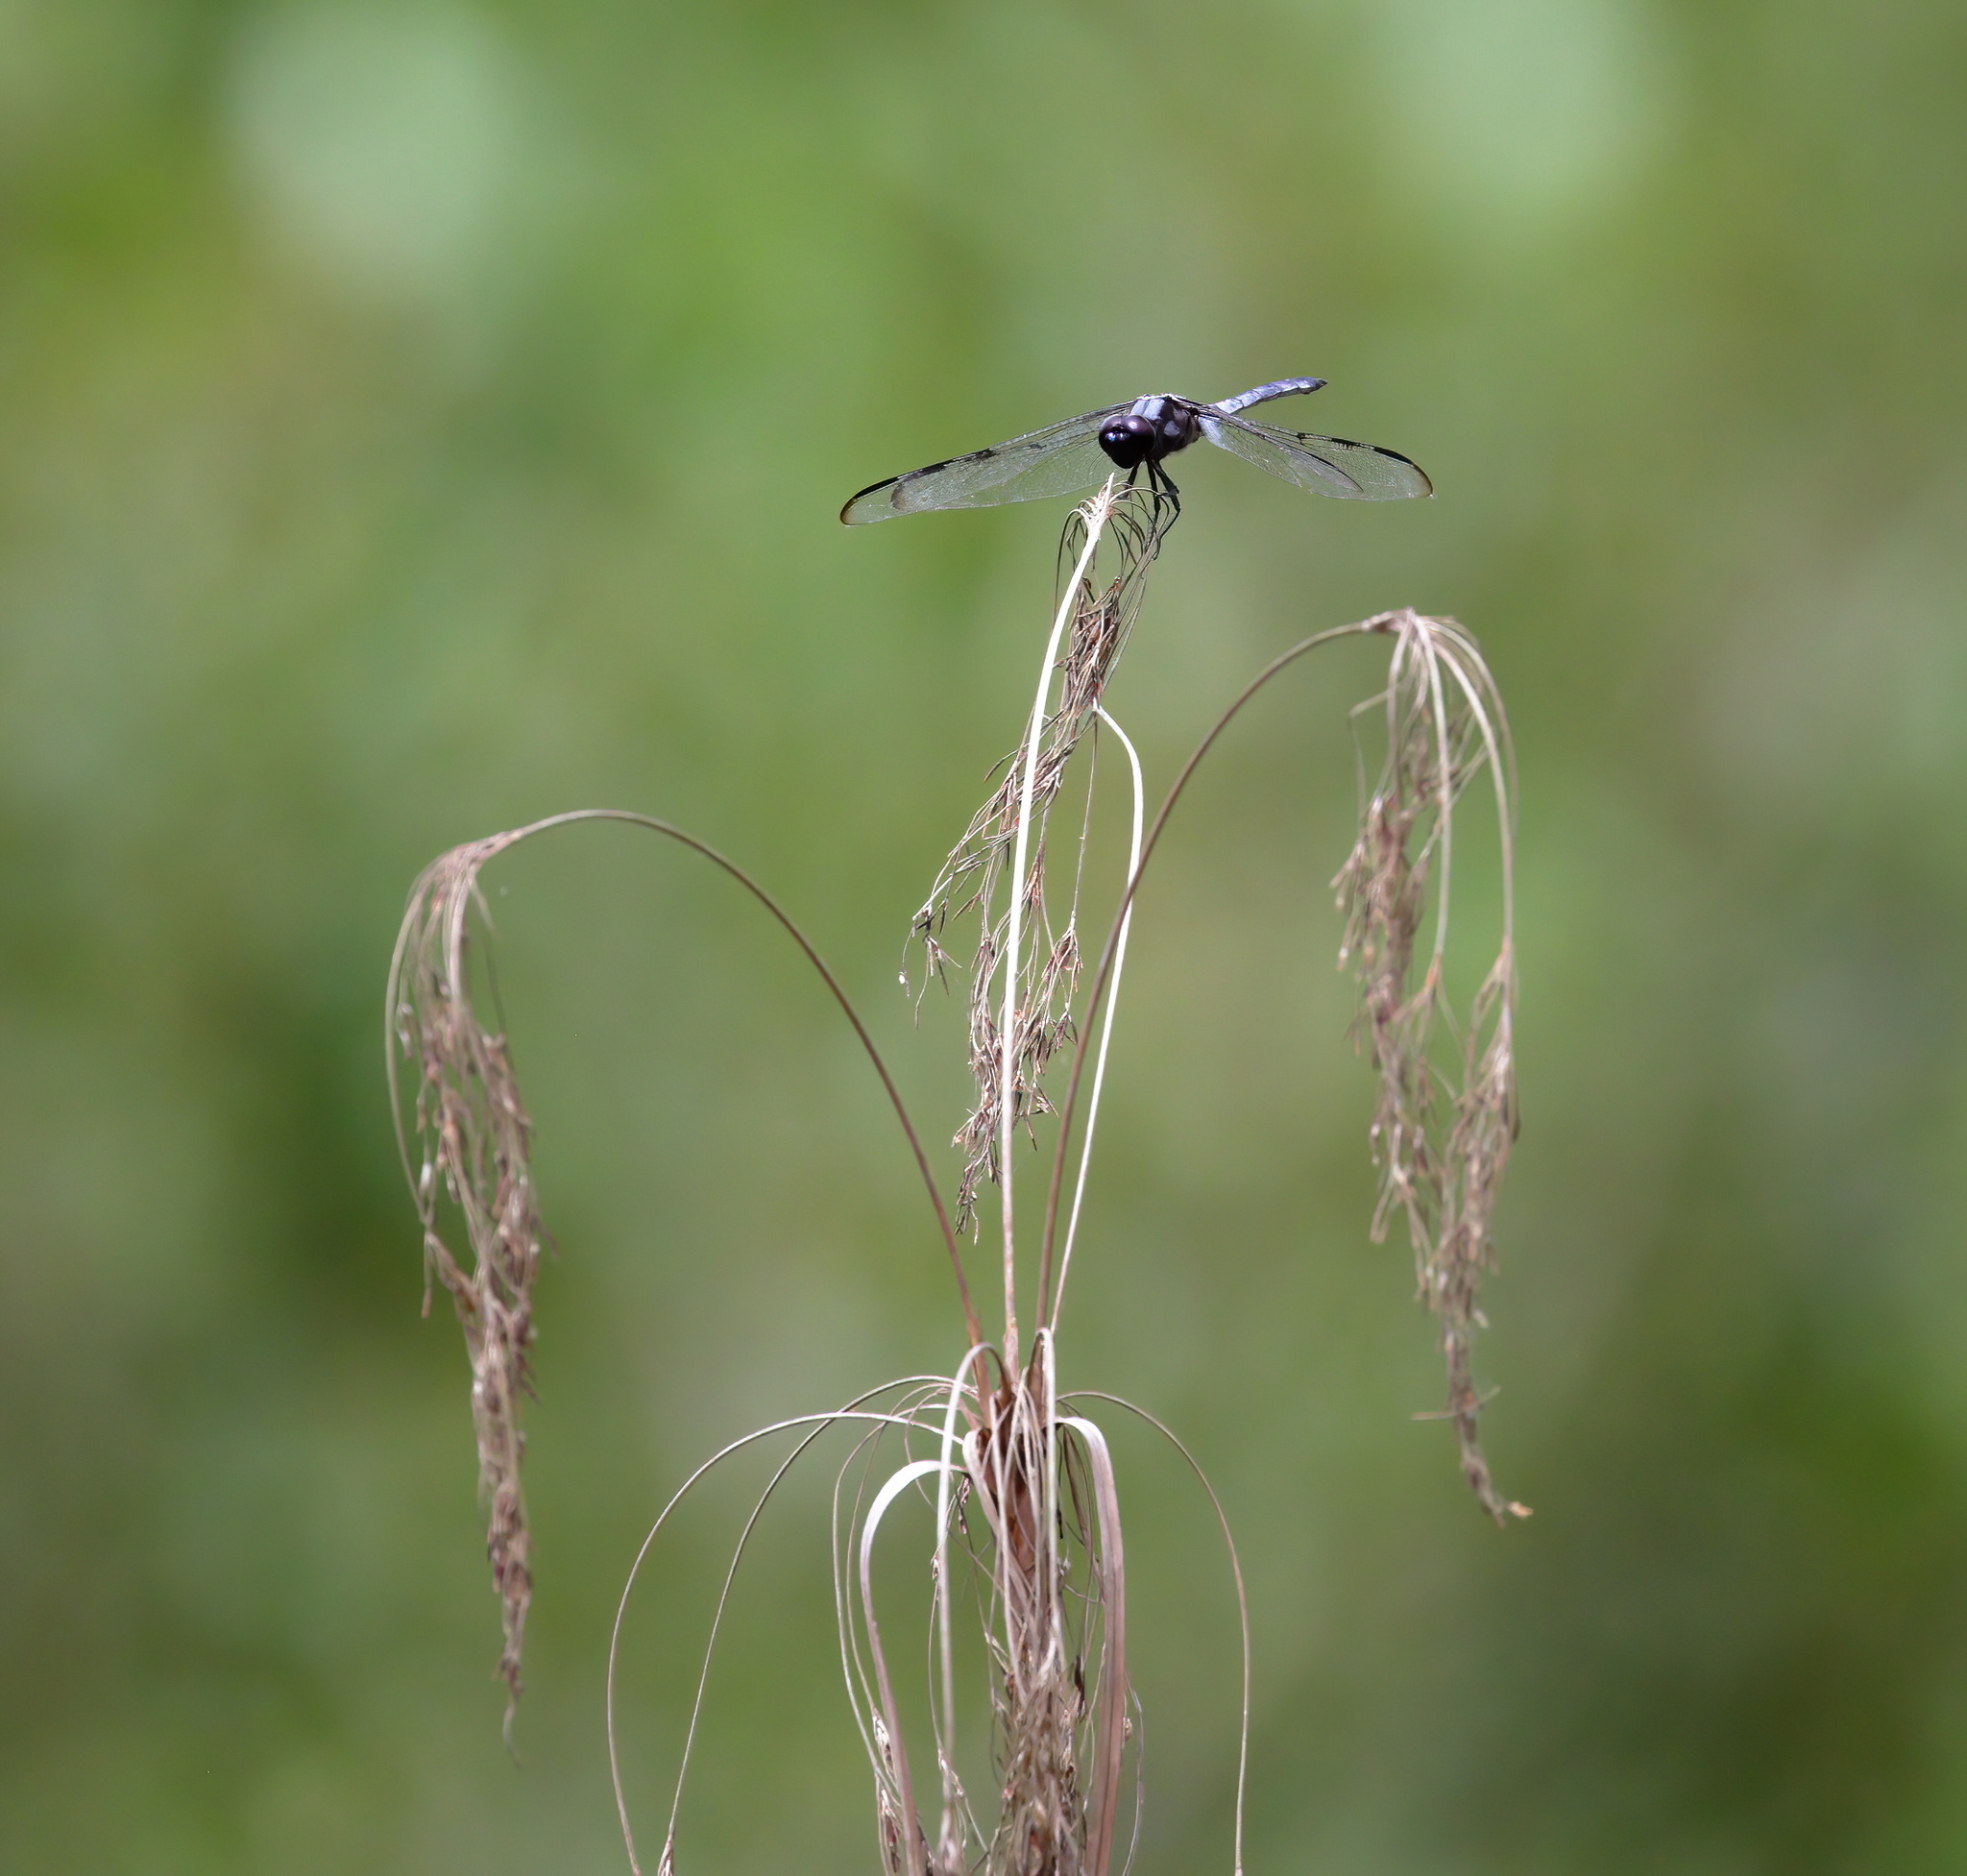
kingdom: Animalia
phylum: Arthropoda
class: Insecta
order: Odonata
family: Libellulidae
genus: Libellula
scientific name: Libellula axilena
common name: Bar-winged skimmer
